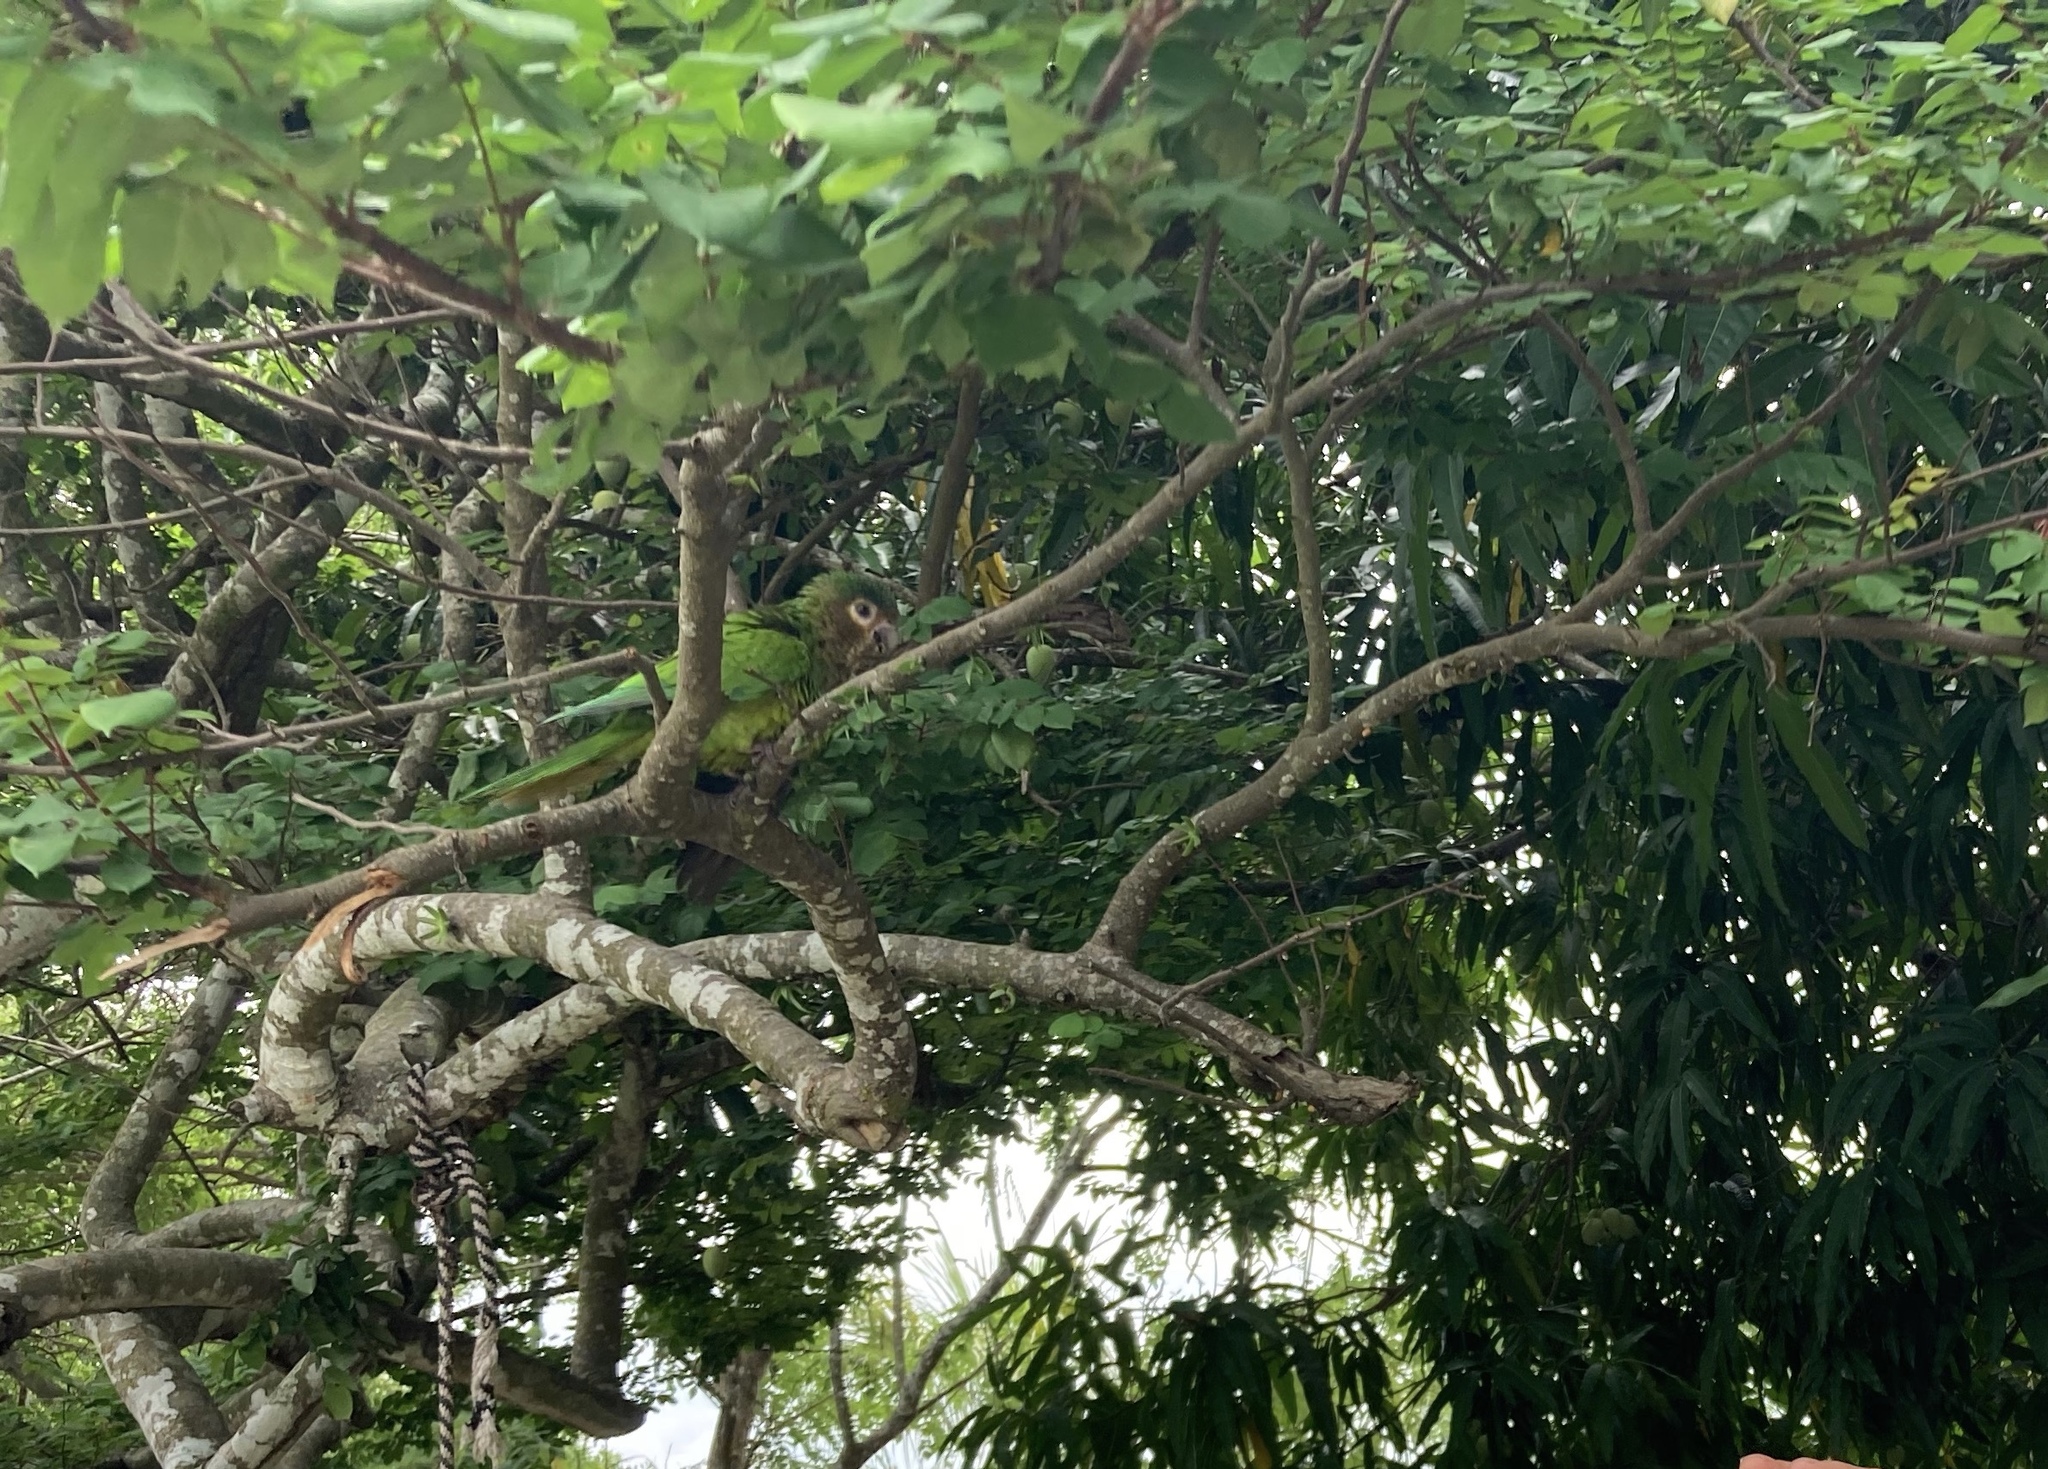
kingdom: Animalia
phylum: Chordata
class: Aves
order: Psittaciformes
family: Psittacidae
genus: Aratinga
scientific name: Aratinga pertinax
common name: Brown-throated parakeet
